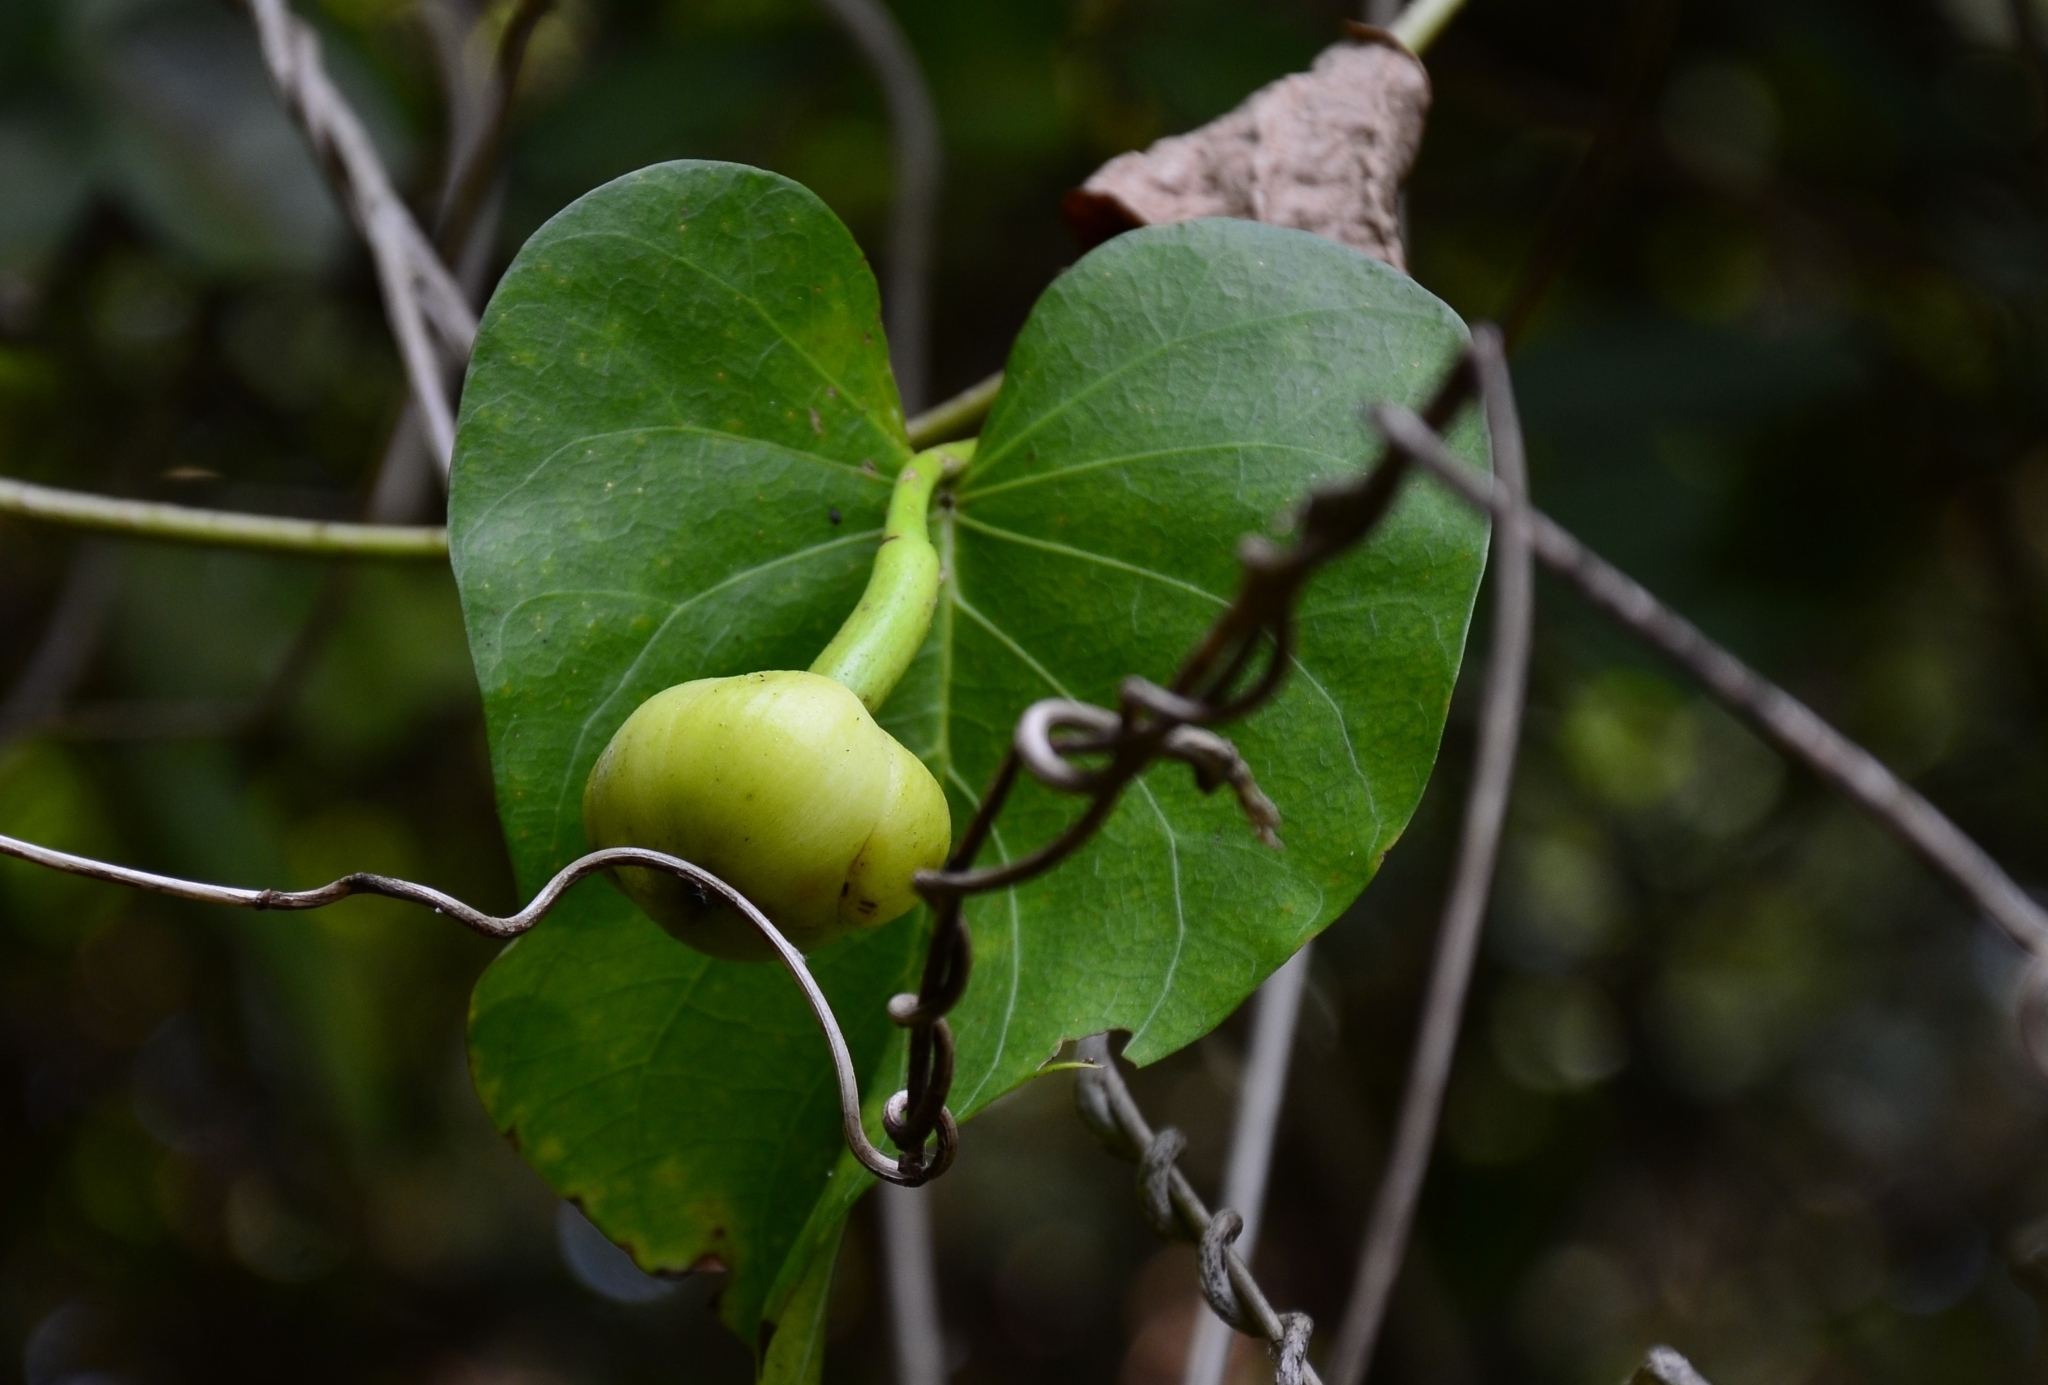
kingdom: Plantae
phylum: Tracheophyta
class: Magnoliopsida
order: Solanales
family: Convolvulaceae
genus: Ipomoea
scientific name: Ipomoea violacea
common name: Beach moonflower
